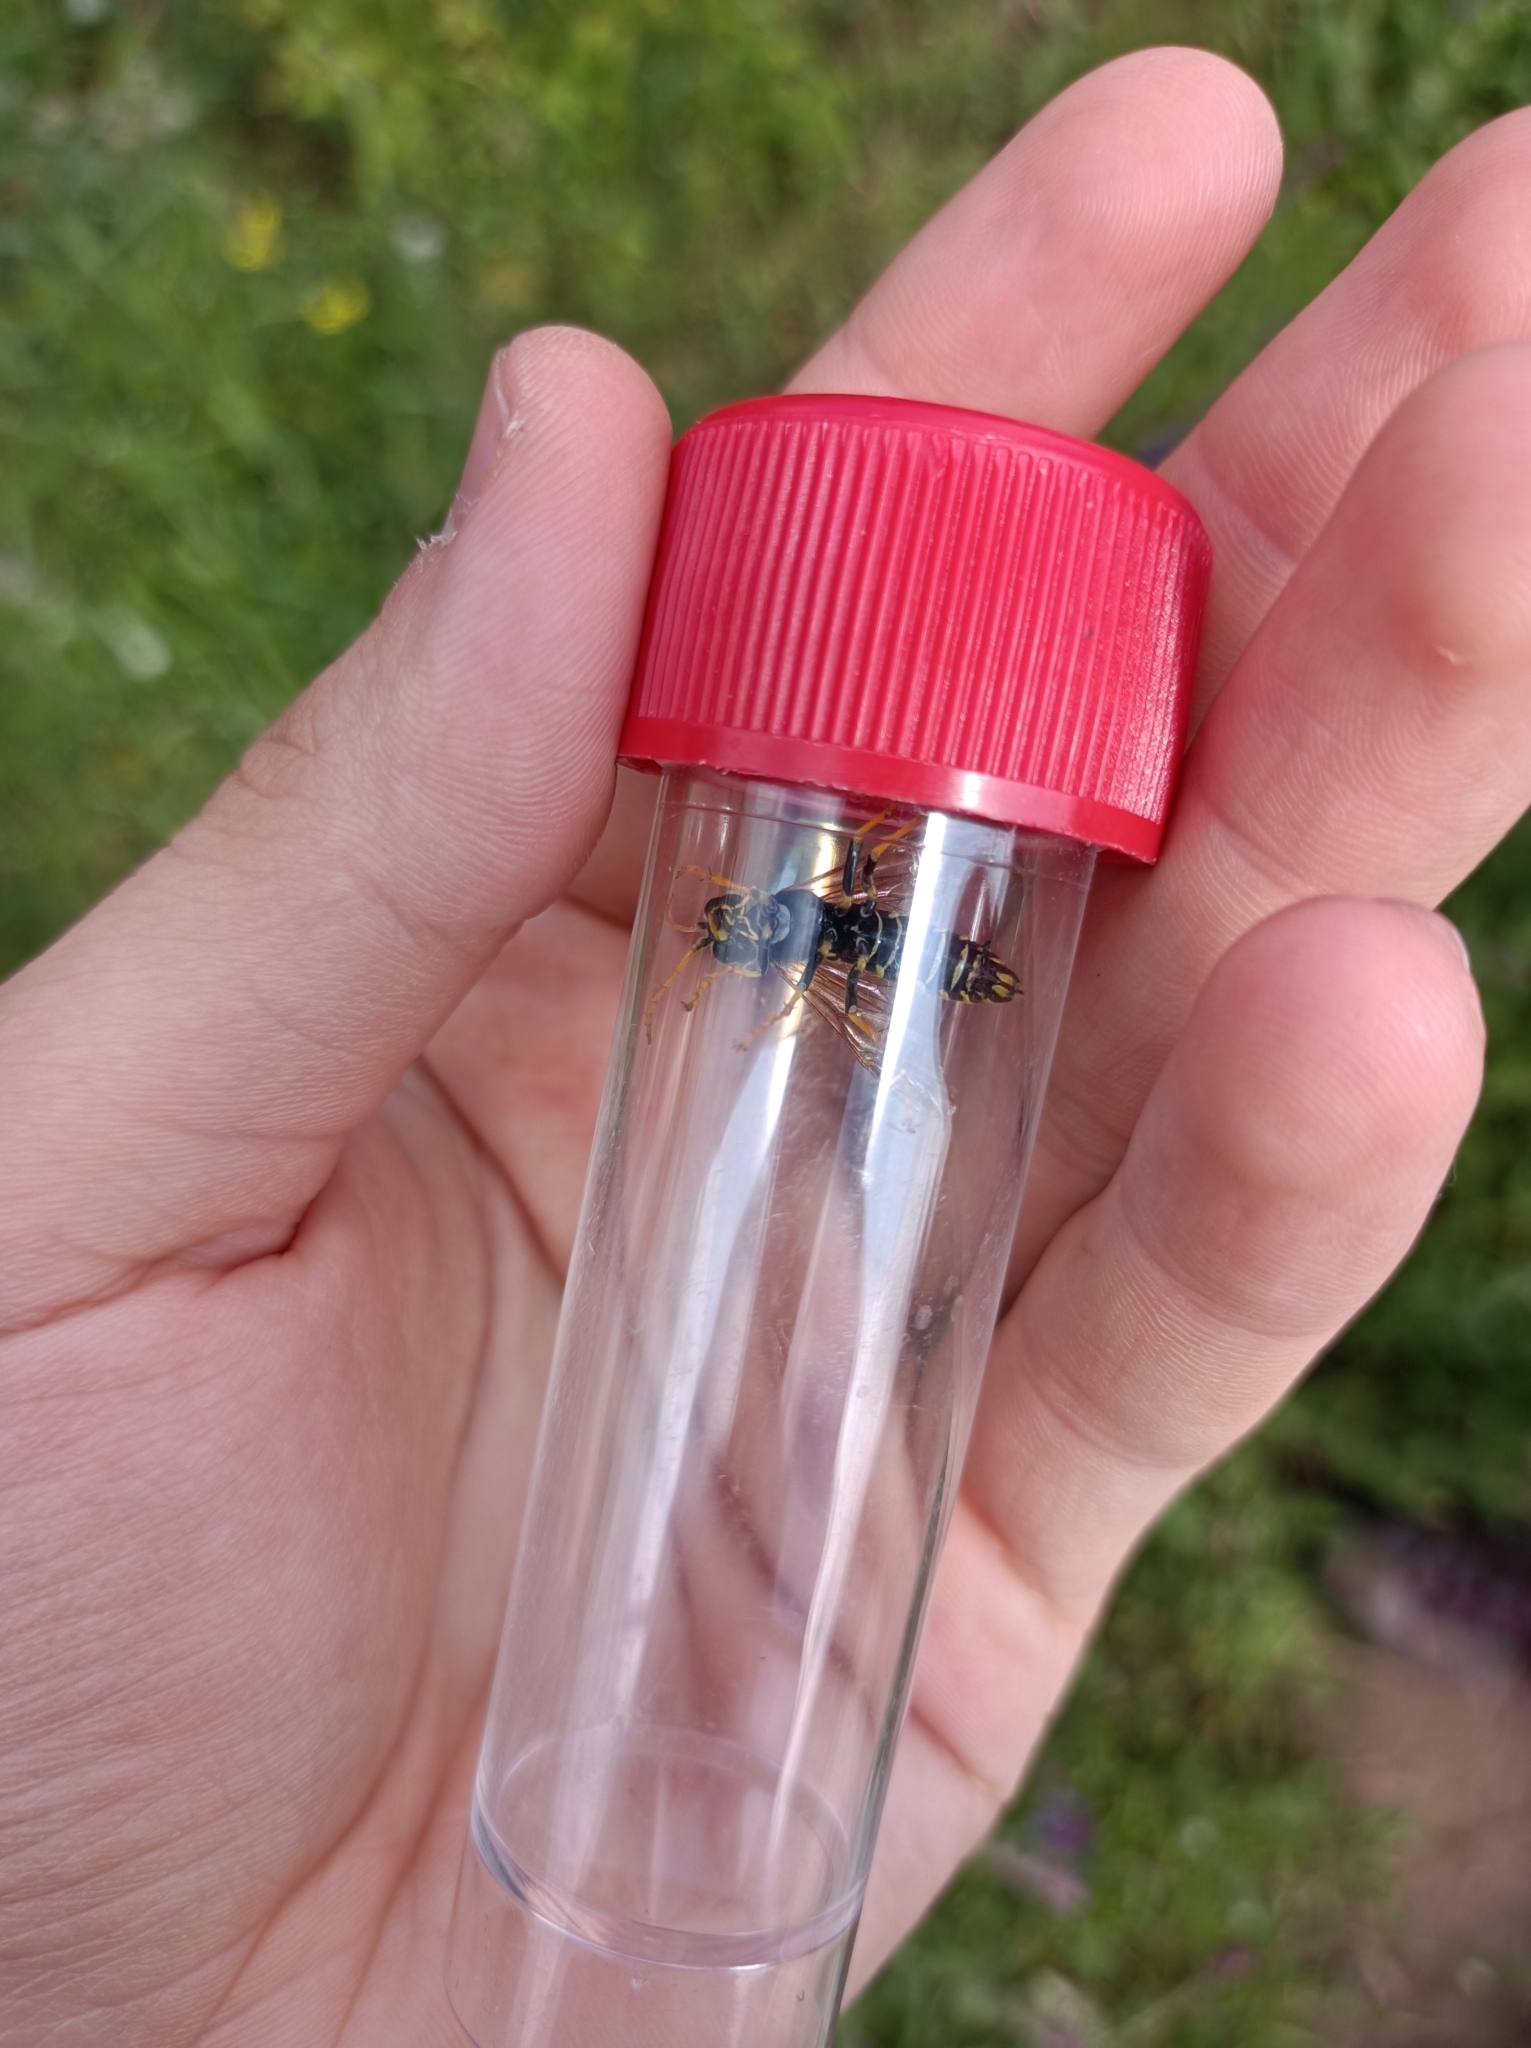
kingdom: Animalia
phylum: Arthropoda
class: Insecta
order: Hymenoptera
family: Tenthredinidae
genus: Tenthredo
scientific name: Tenthredo scrophulariae
